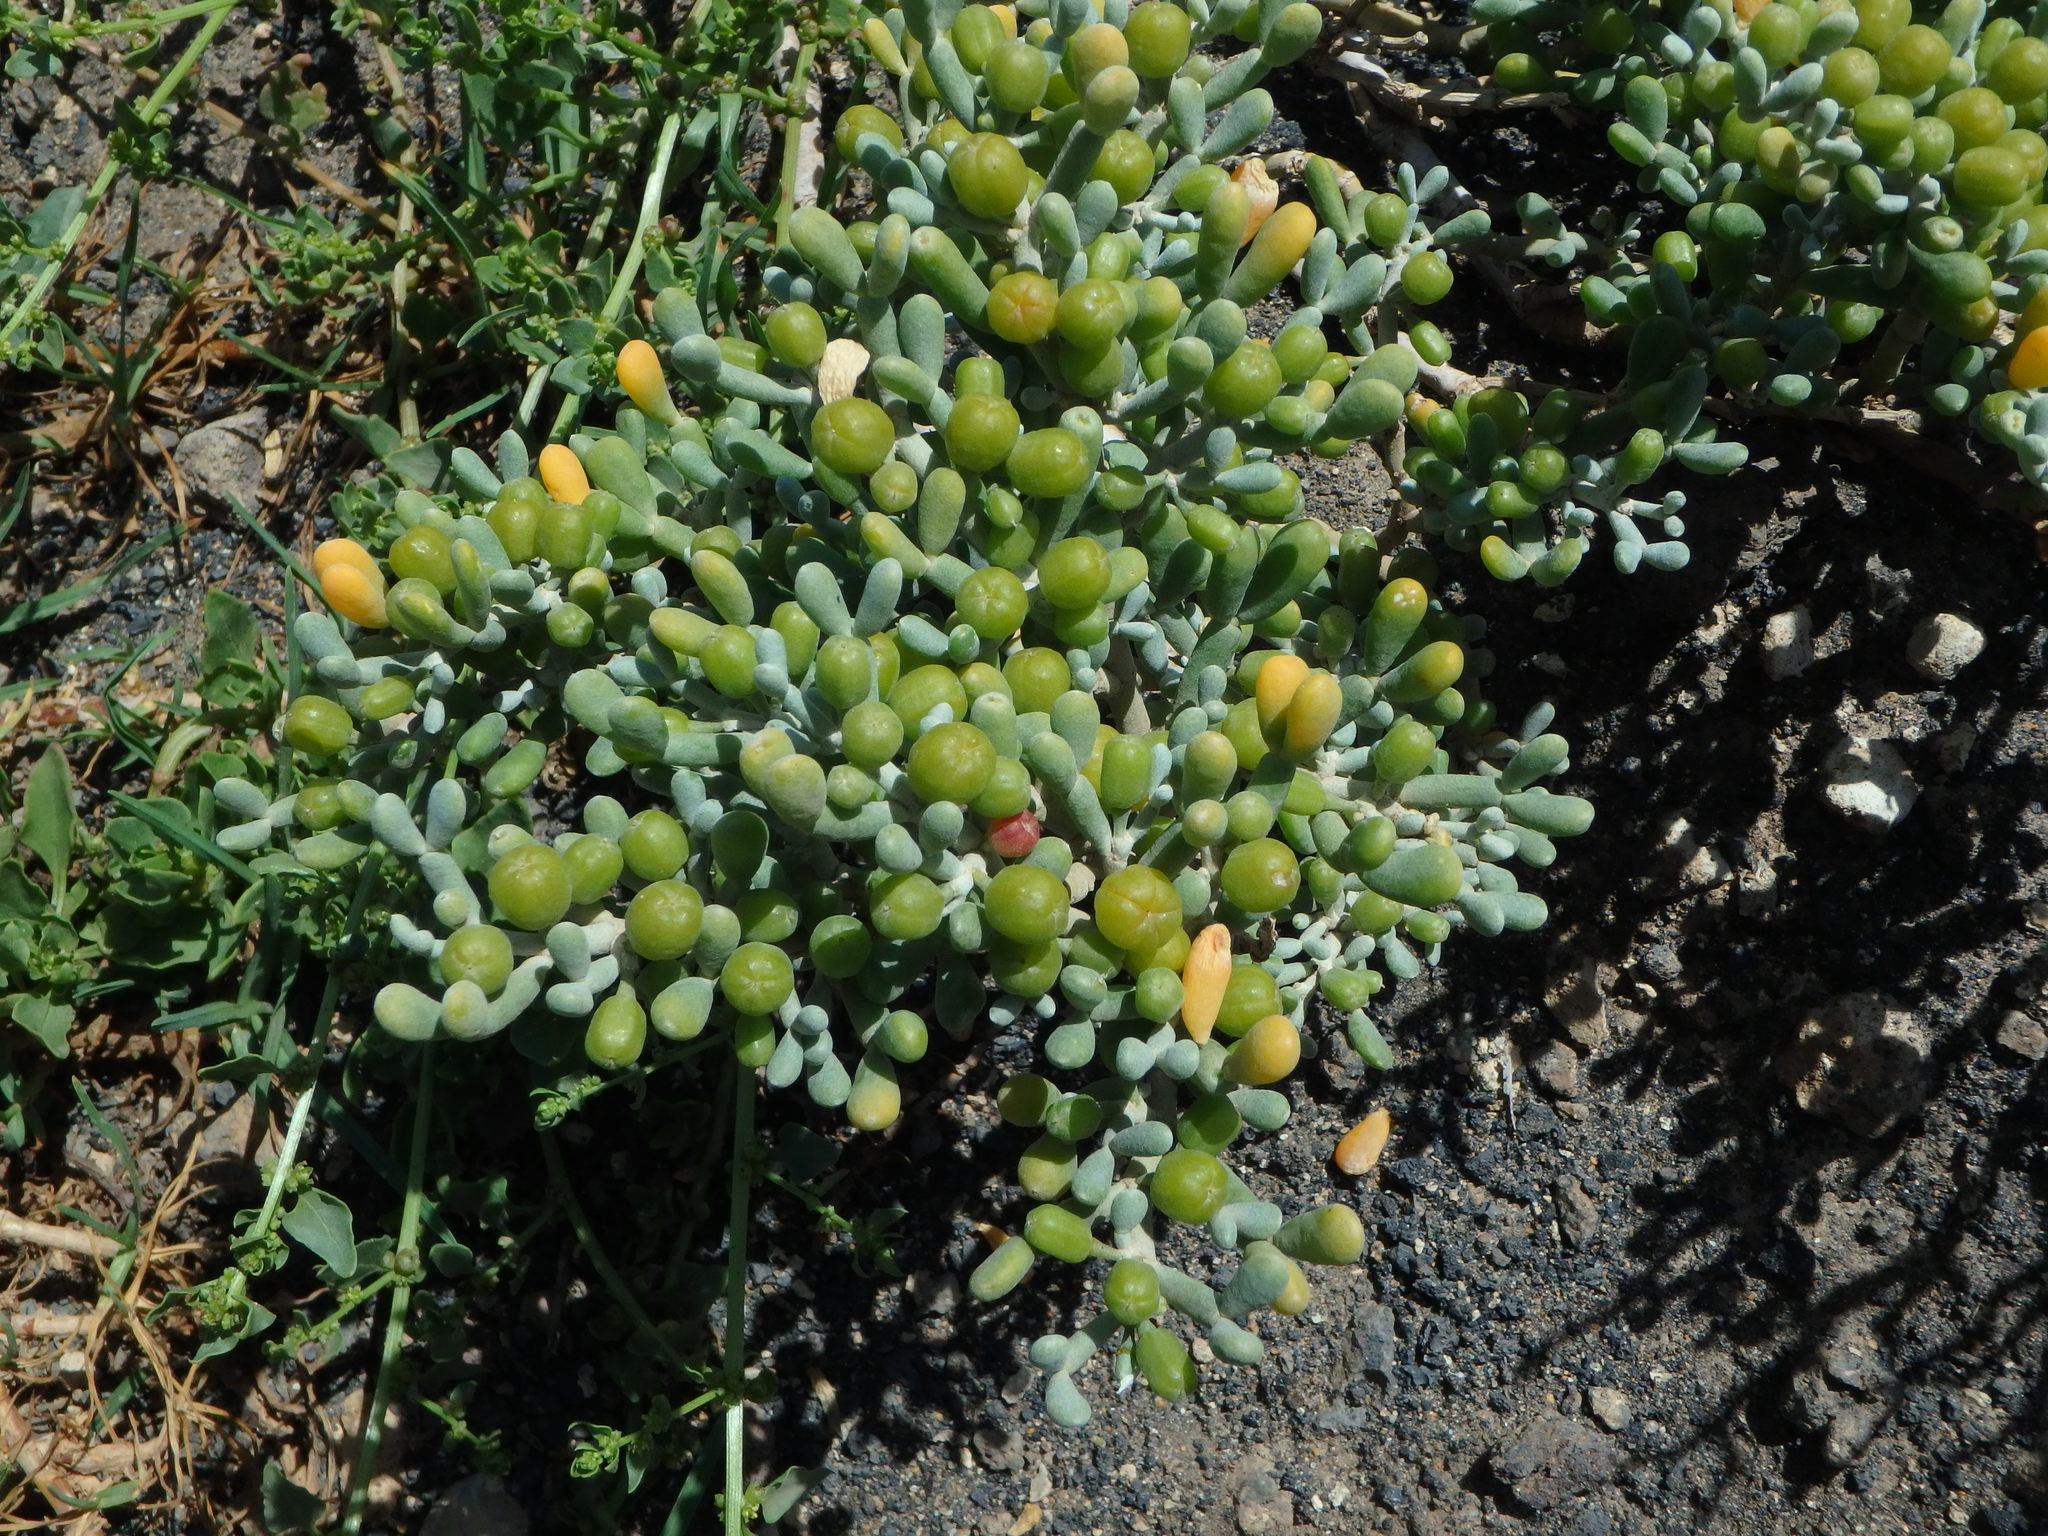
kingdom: Plantae
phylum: Tracheophyta
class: Magnoliopsida
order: Zygophyllales
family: Zygophyllaceae
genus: Tetraena
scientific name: Tetraena fontanesii
